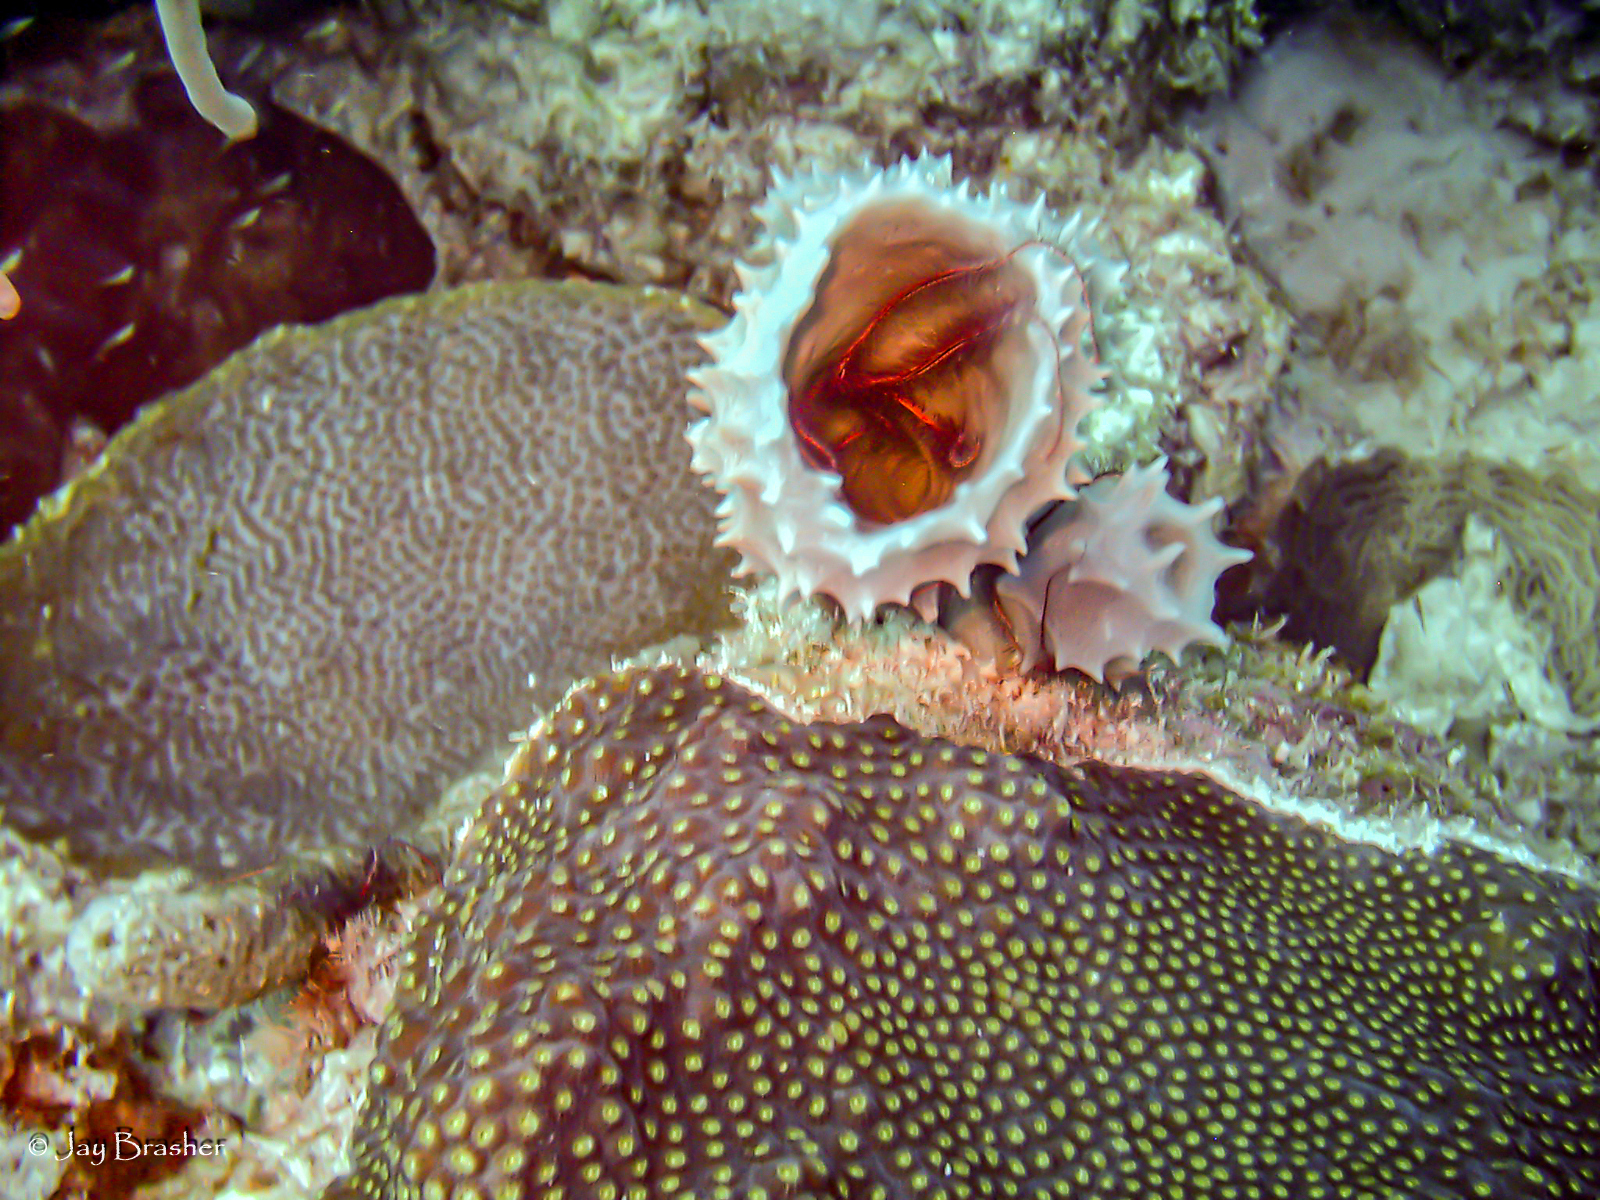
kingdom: Animalia
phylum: Porifera
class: Demospongiae
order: Haplosclerida
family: Callyspongiidae
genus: Callyspongia
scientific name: Callyspongia aculeata
